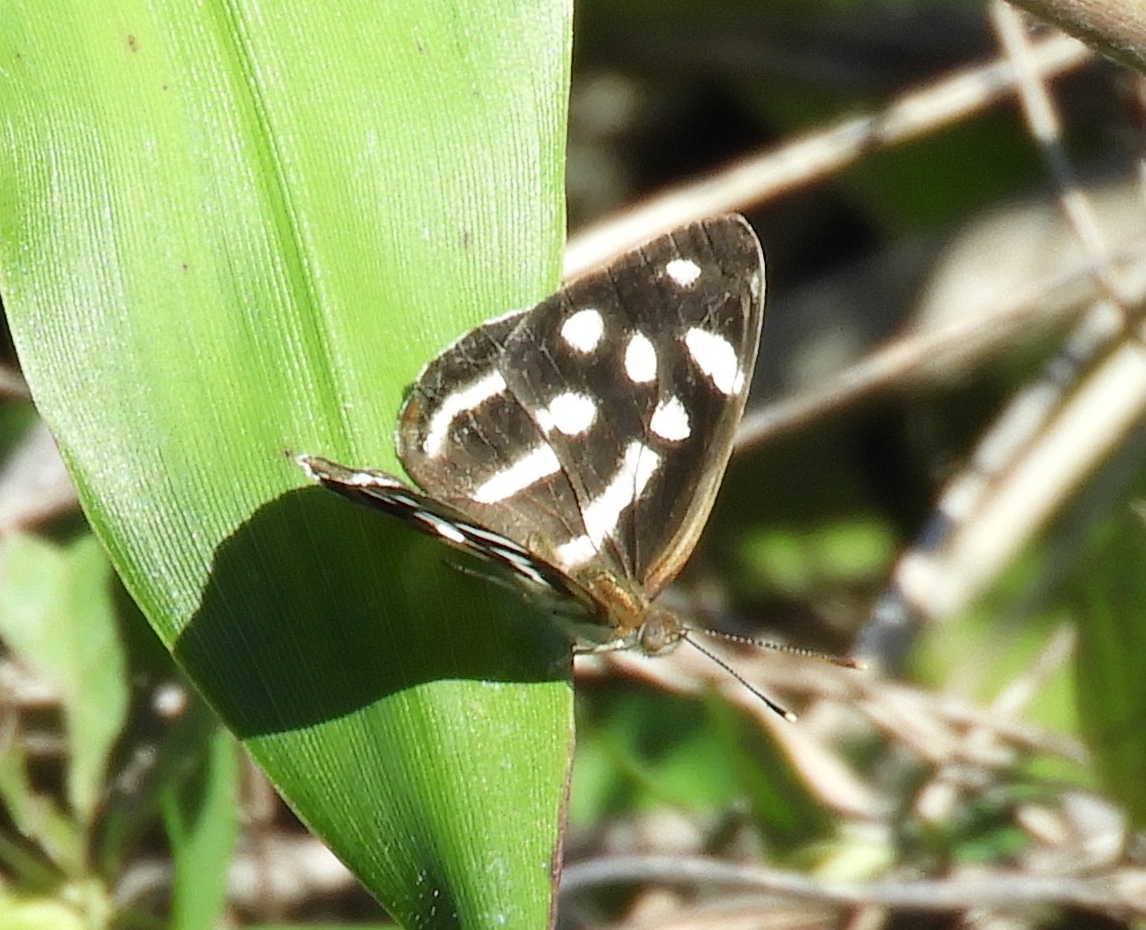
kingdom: Animalia
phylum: Arthropoda
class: Insecta
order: Lepidoptera
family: Nymphalidae
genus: Dynamine
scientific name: Dynamine mylitta
